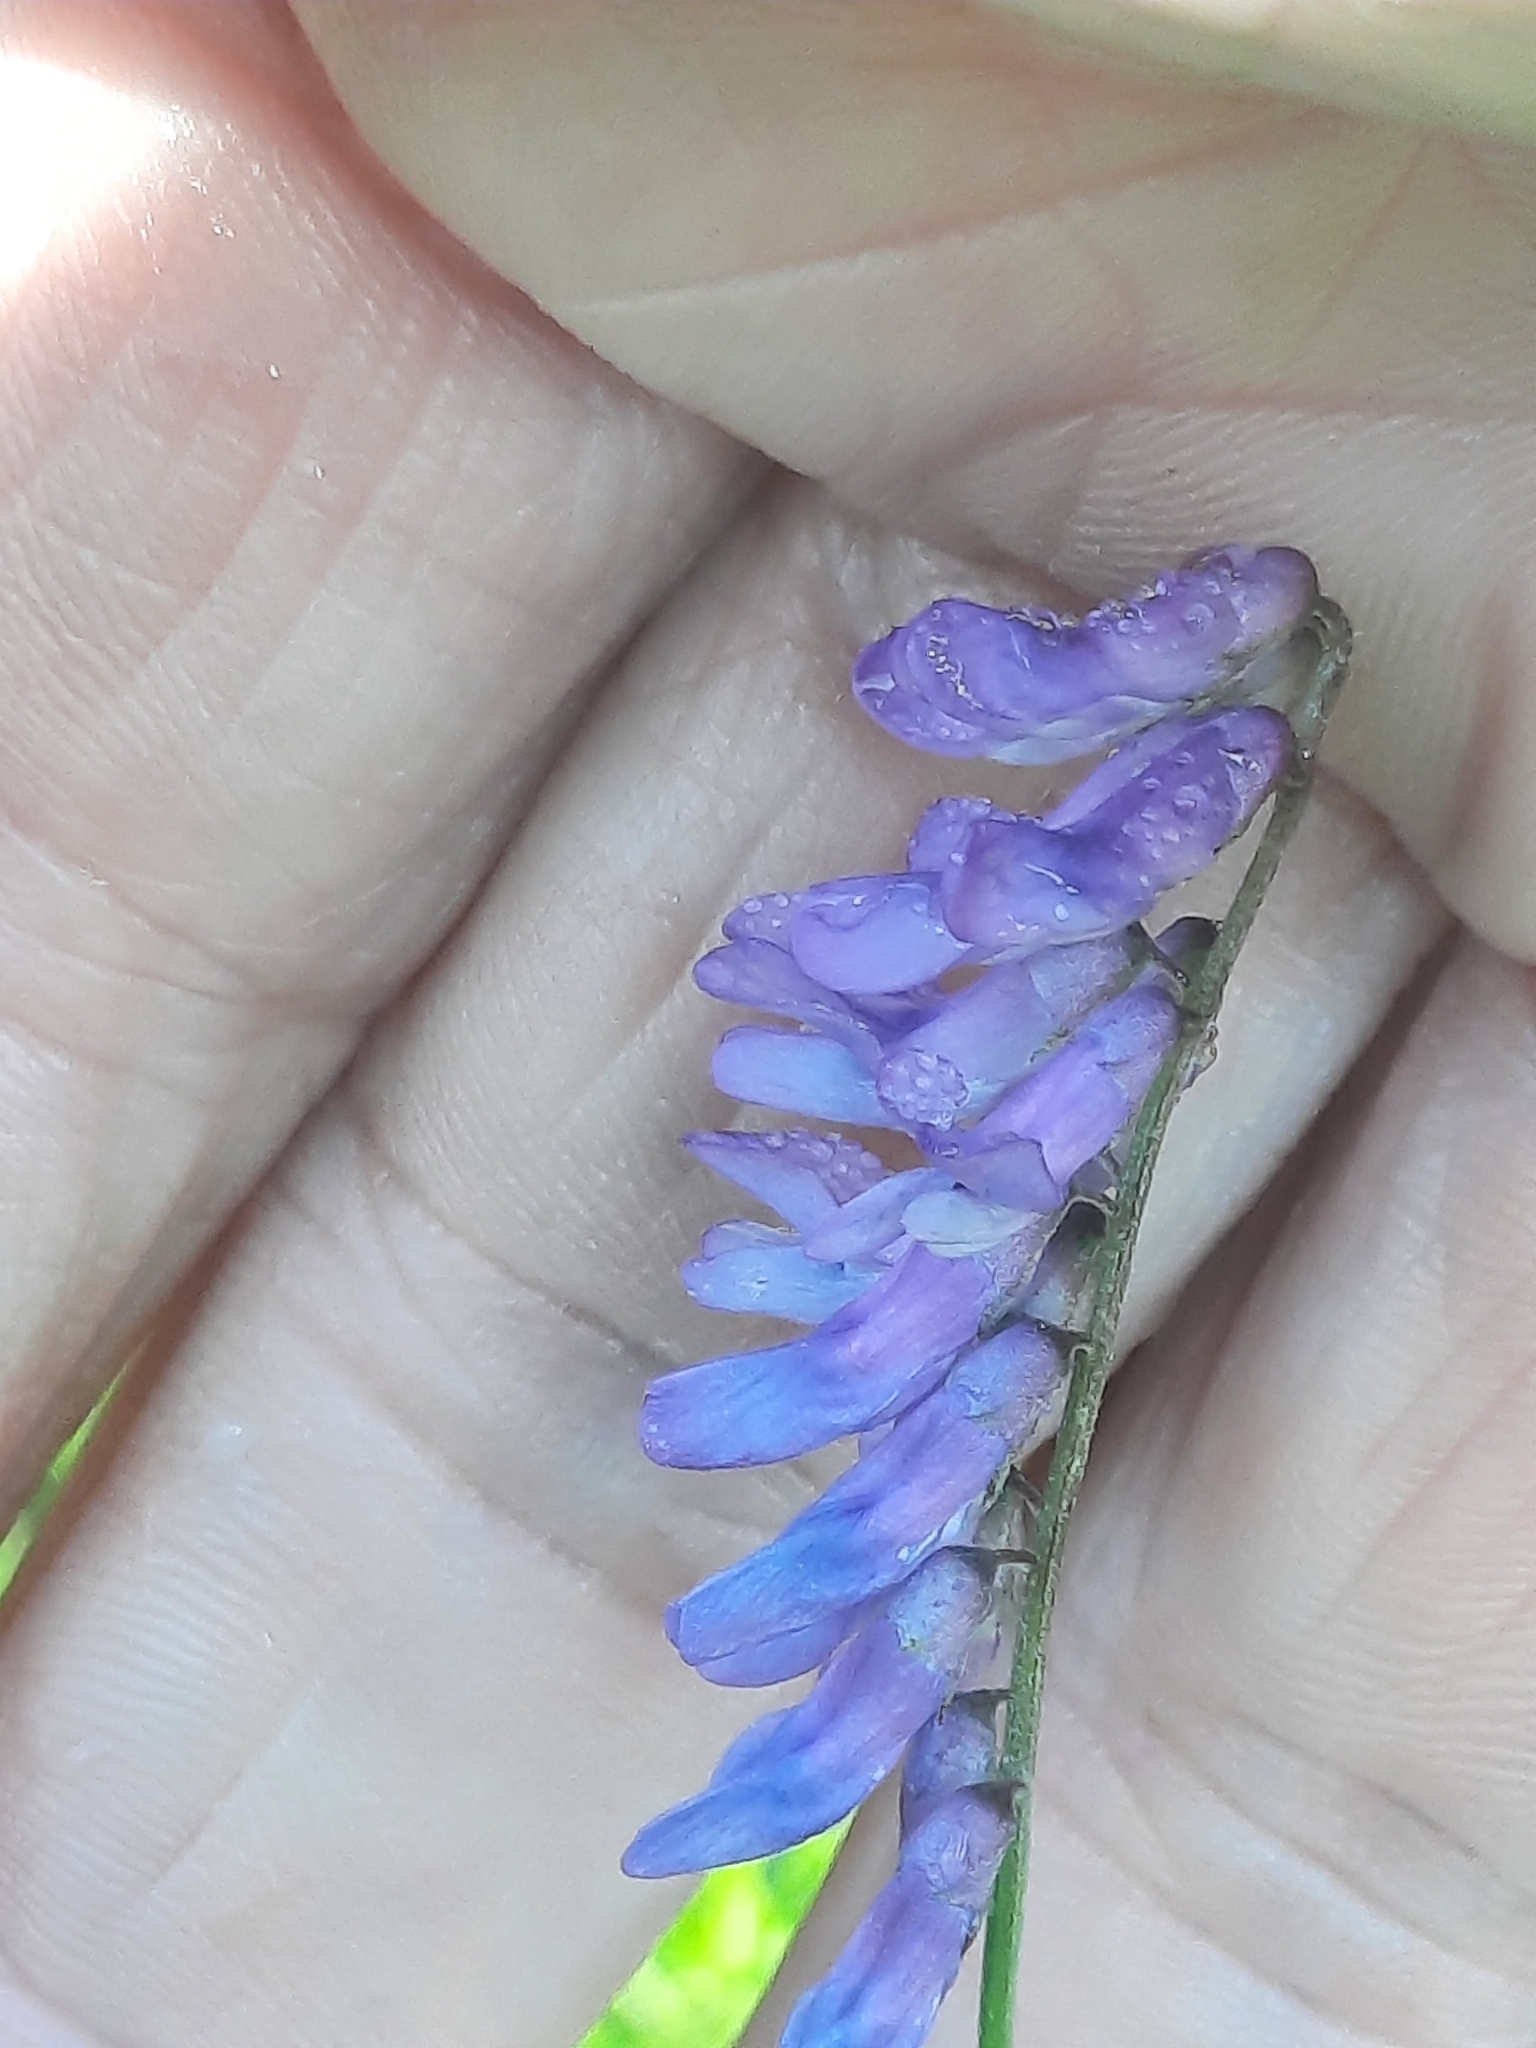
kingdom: Plantae
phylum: Tracheophyta
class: Magnoliopsida
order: Fabales
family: Fabaceae
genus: Vicia
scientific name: Vicia cracca
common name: Bird vetch
